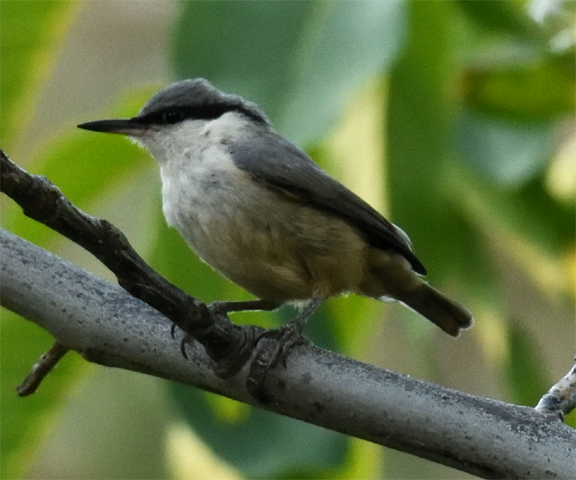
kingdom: Animalia
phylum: Chordata
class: Aves
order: Passeriformes
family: Sittidae
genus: Sitta
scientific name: Sitta neumayer
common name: Western rock nuthatch
